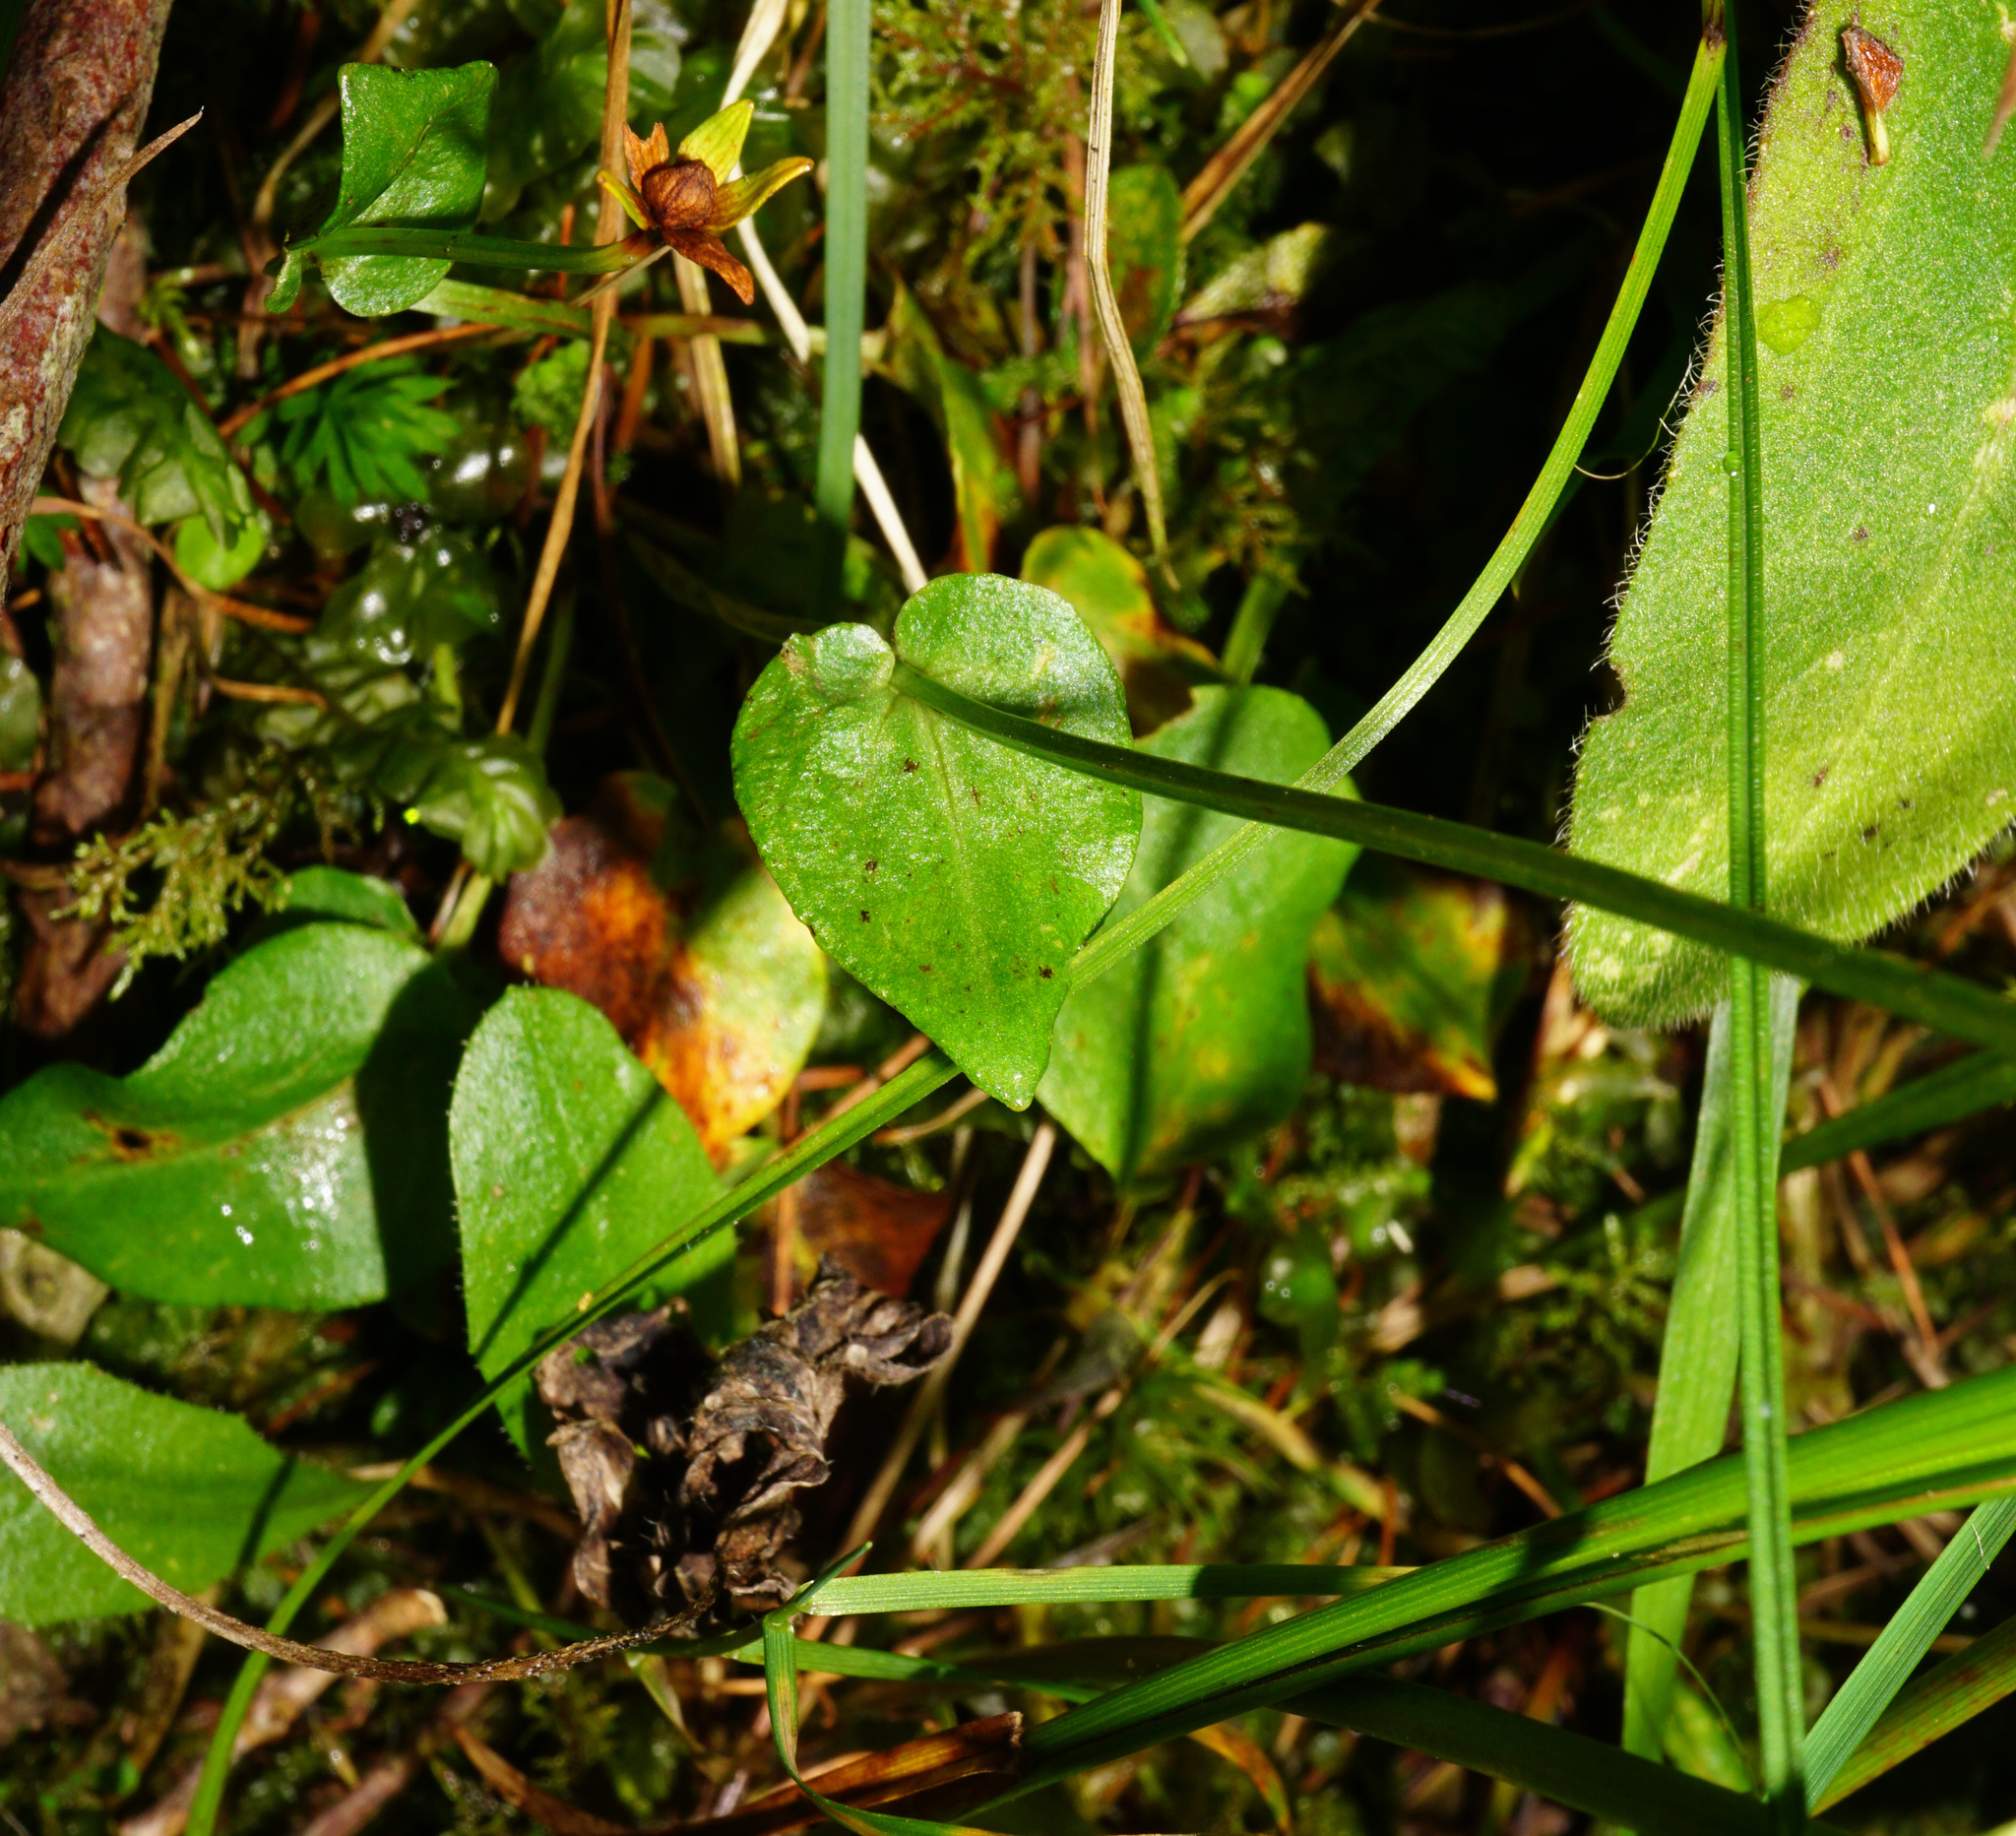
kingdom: Plantae
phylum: Tracheophyta
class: Magnoliopsida
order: Celastrales
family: Parnassiaceae
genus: Parnassia
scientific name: Parnassia palustris
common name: Grass-of-parnassus
